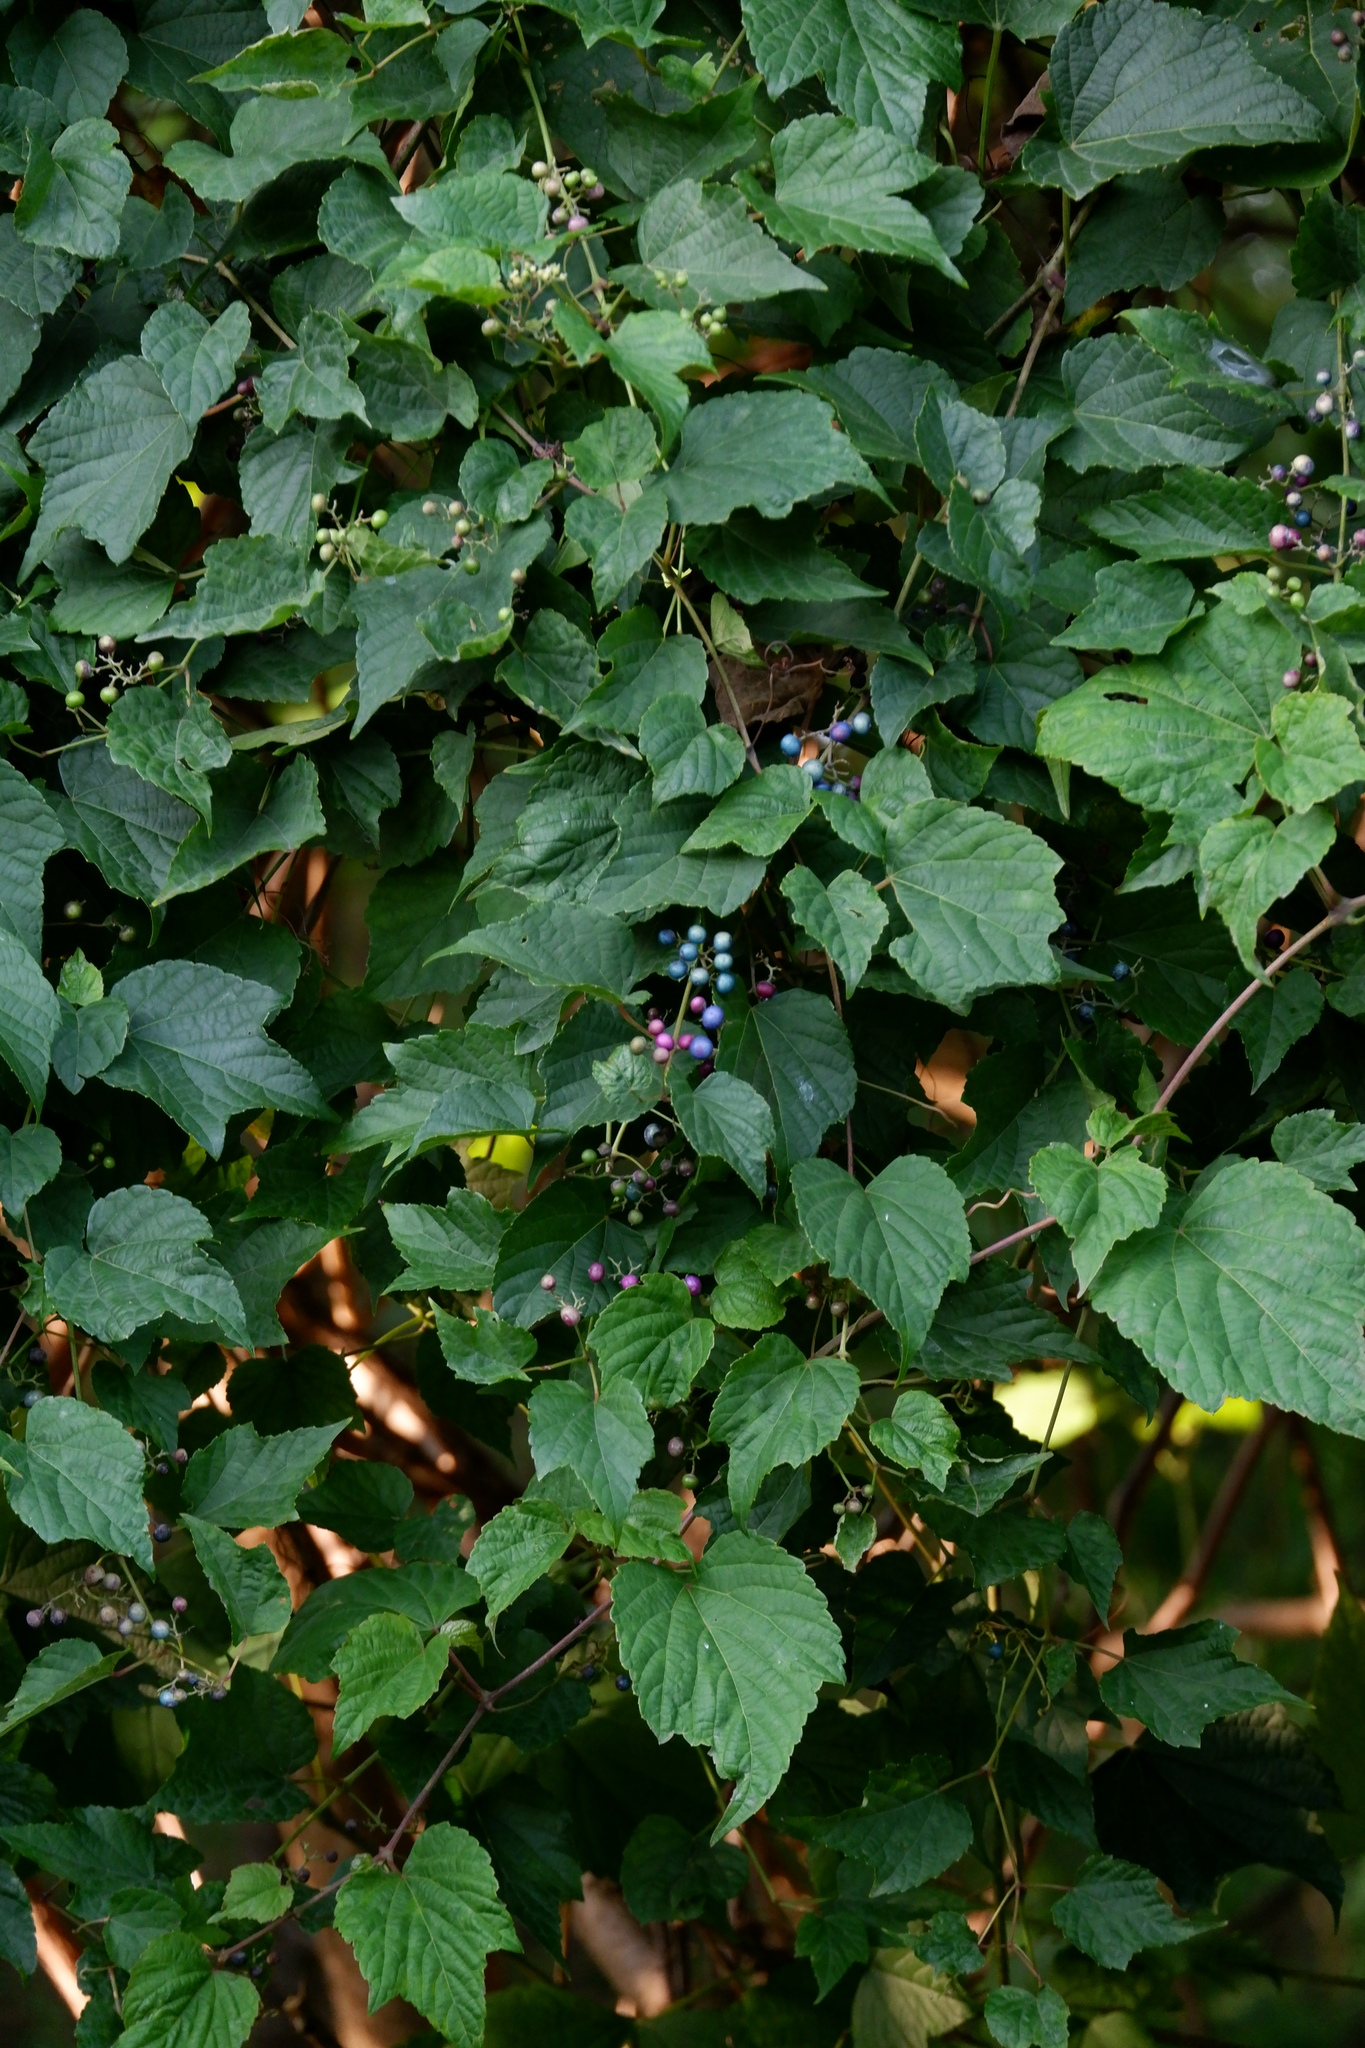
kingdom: Plantae
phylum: Tracheophyta
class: Magnoliopsida
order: Vitales
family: Vitaceae
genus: Ampelopsis
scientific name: Ampelopsis glandulosa
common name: Amur peppervine
